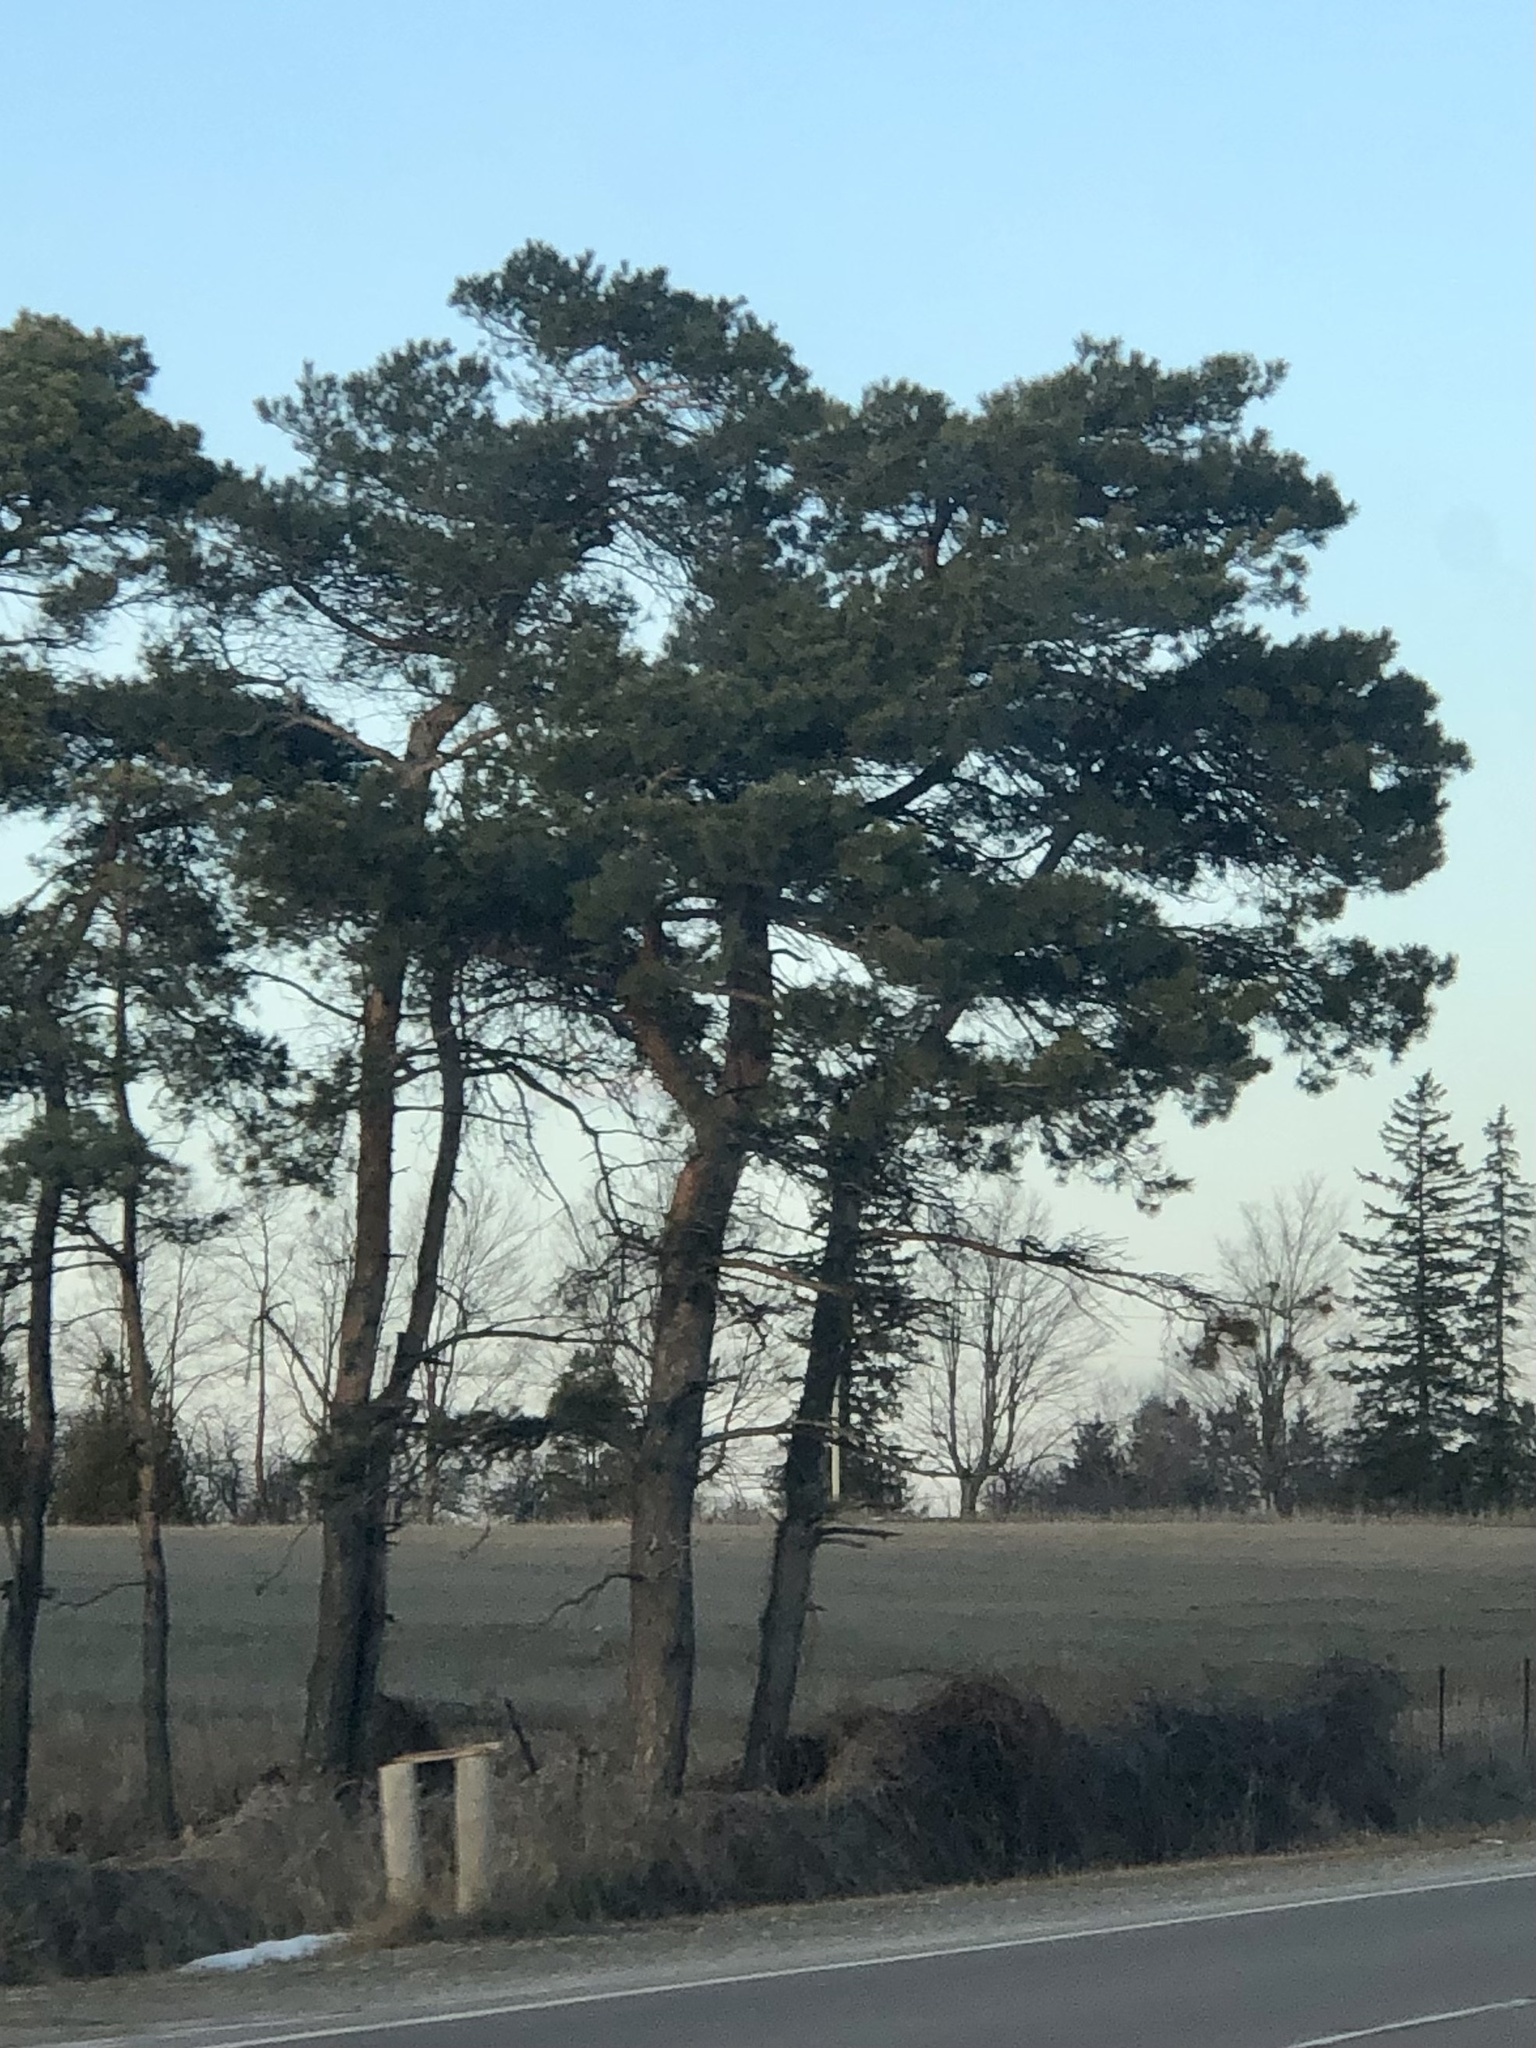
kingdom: Plantae
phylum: Tracheophyta
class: Pinopsida
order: Pinales
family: Pinaceae
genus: Pinus
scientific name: Pinus sylvestris
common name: Scots pine
